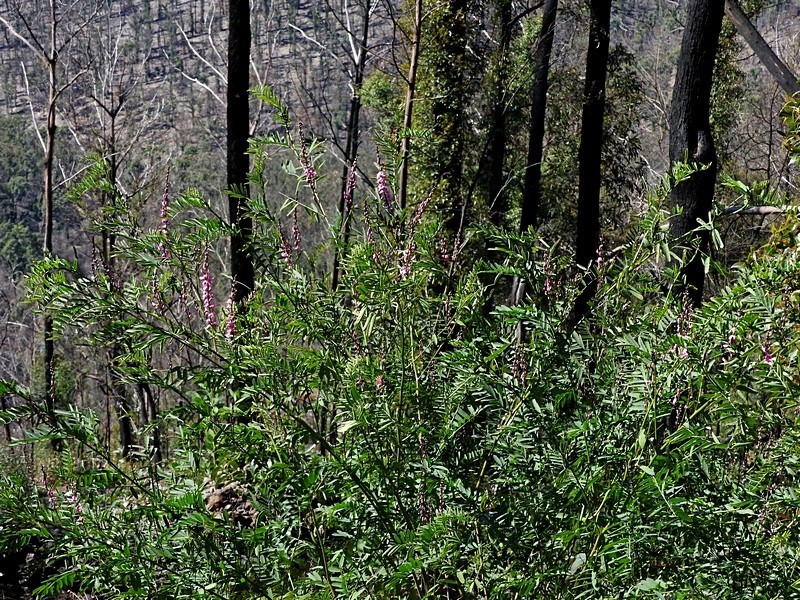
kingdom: Plantae
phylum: Tracheophyta
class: Magnoliopsida
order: Fabales
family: Fabaceae
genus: Indigofera
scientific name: Indigofera australis
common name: Australian indigo
